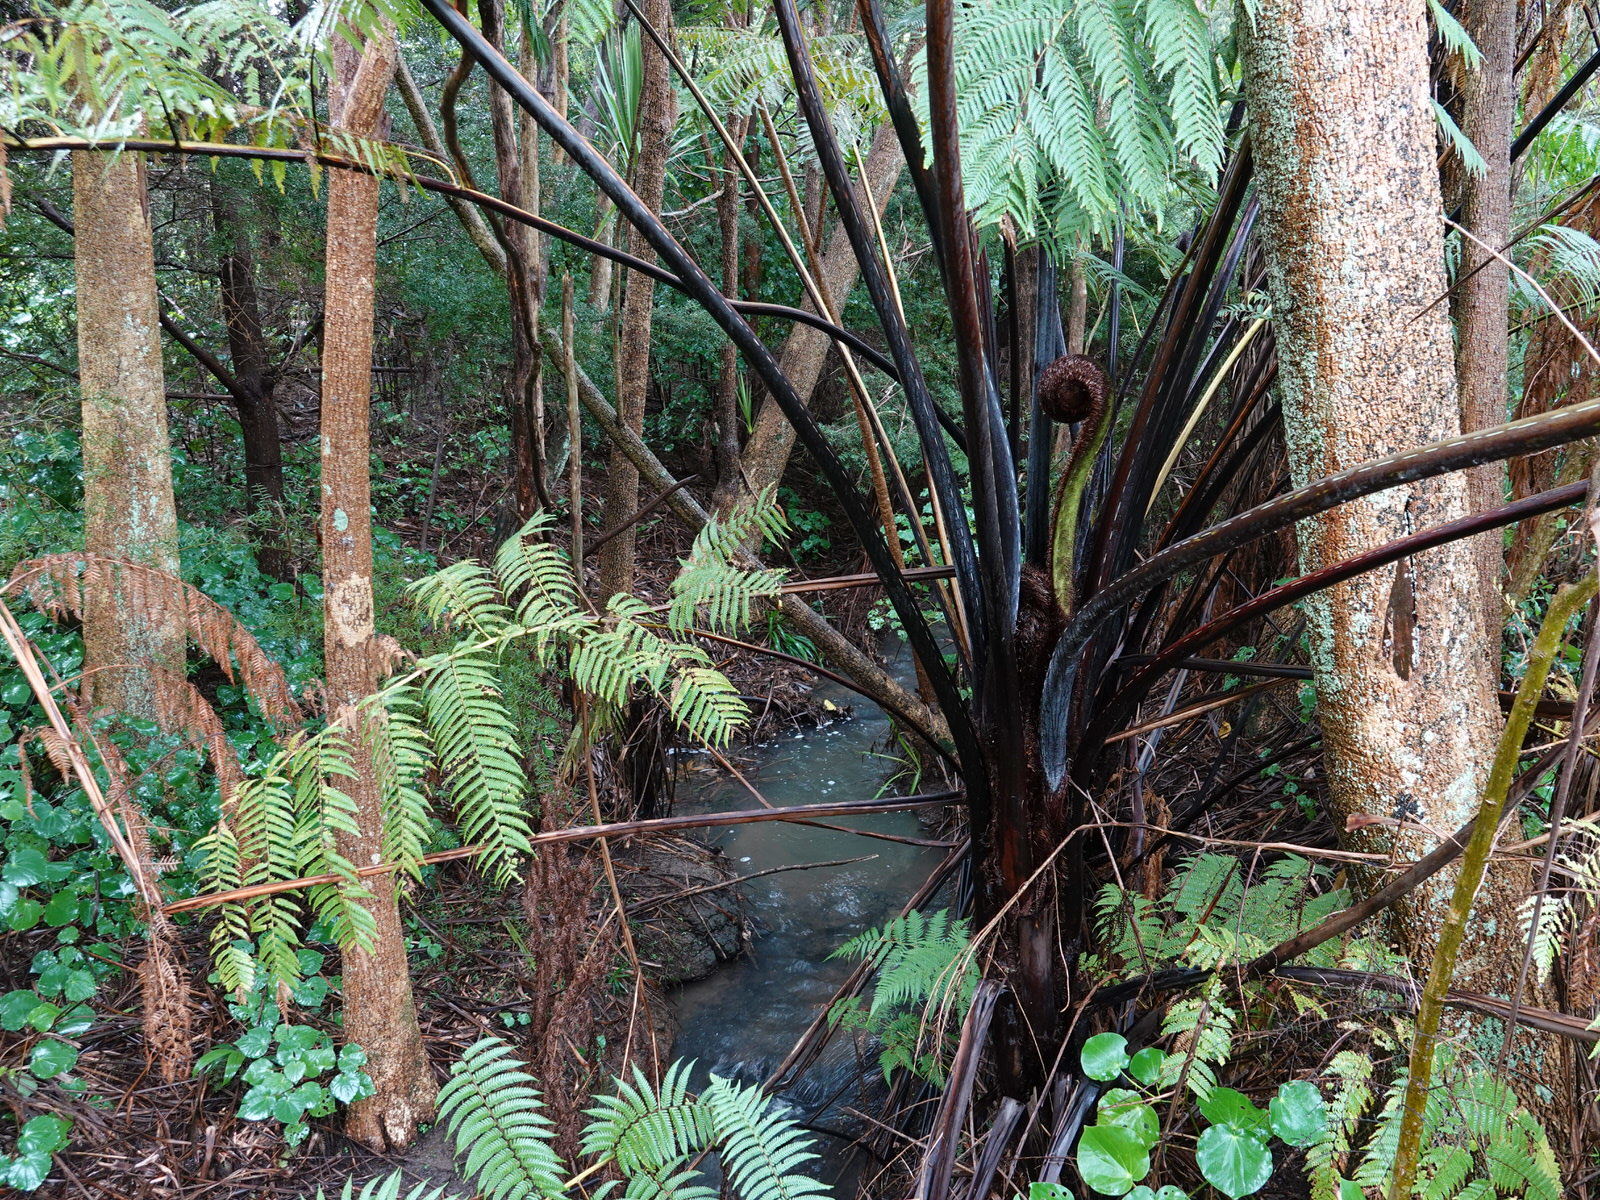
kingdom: Plantae
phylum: Tracheophyta
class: Polypodiopsida
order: Cyatheales
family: Cyatheaceae
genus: Sphaeropteris
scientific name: Sphaeropteris medullaris
